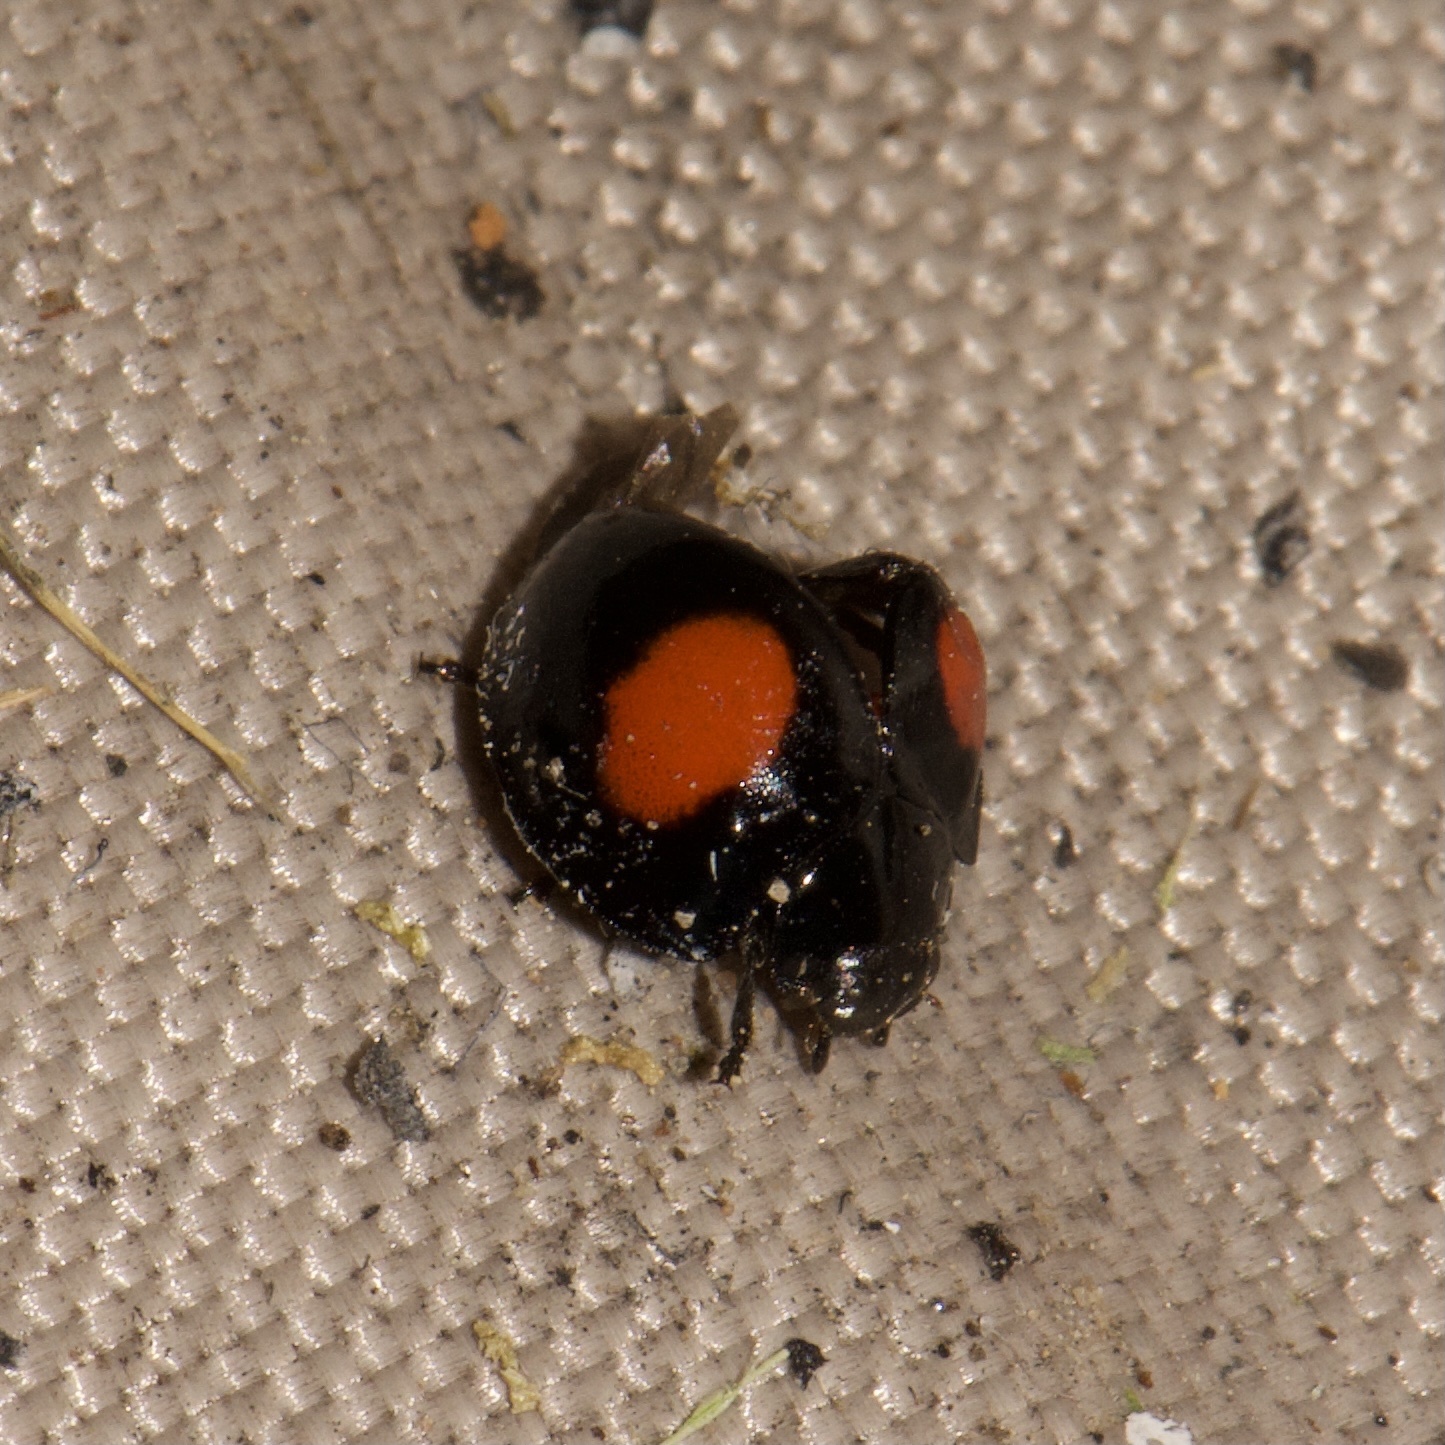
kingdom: Animalia
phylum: Arthropoda
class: Insecta
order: Coleoptera
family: Coccinellidae
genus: Chilocorus
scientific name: Chilocorus cacti
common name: Cactus lady beetle
